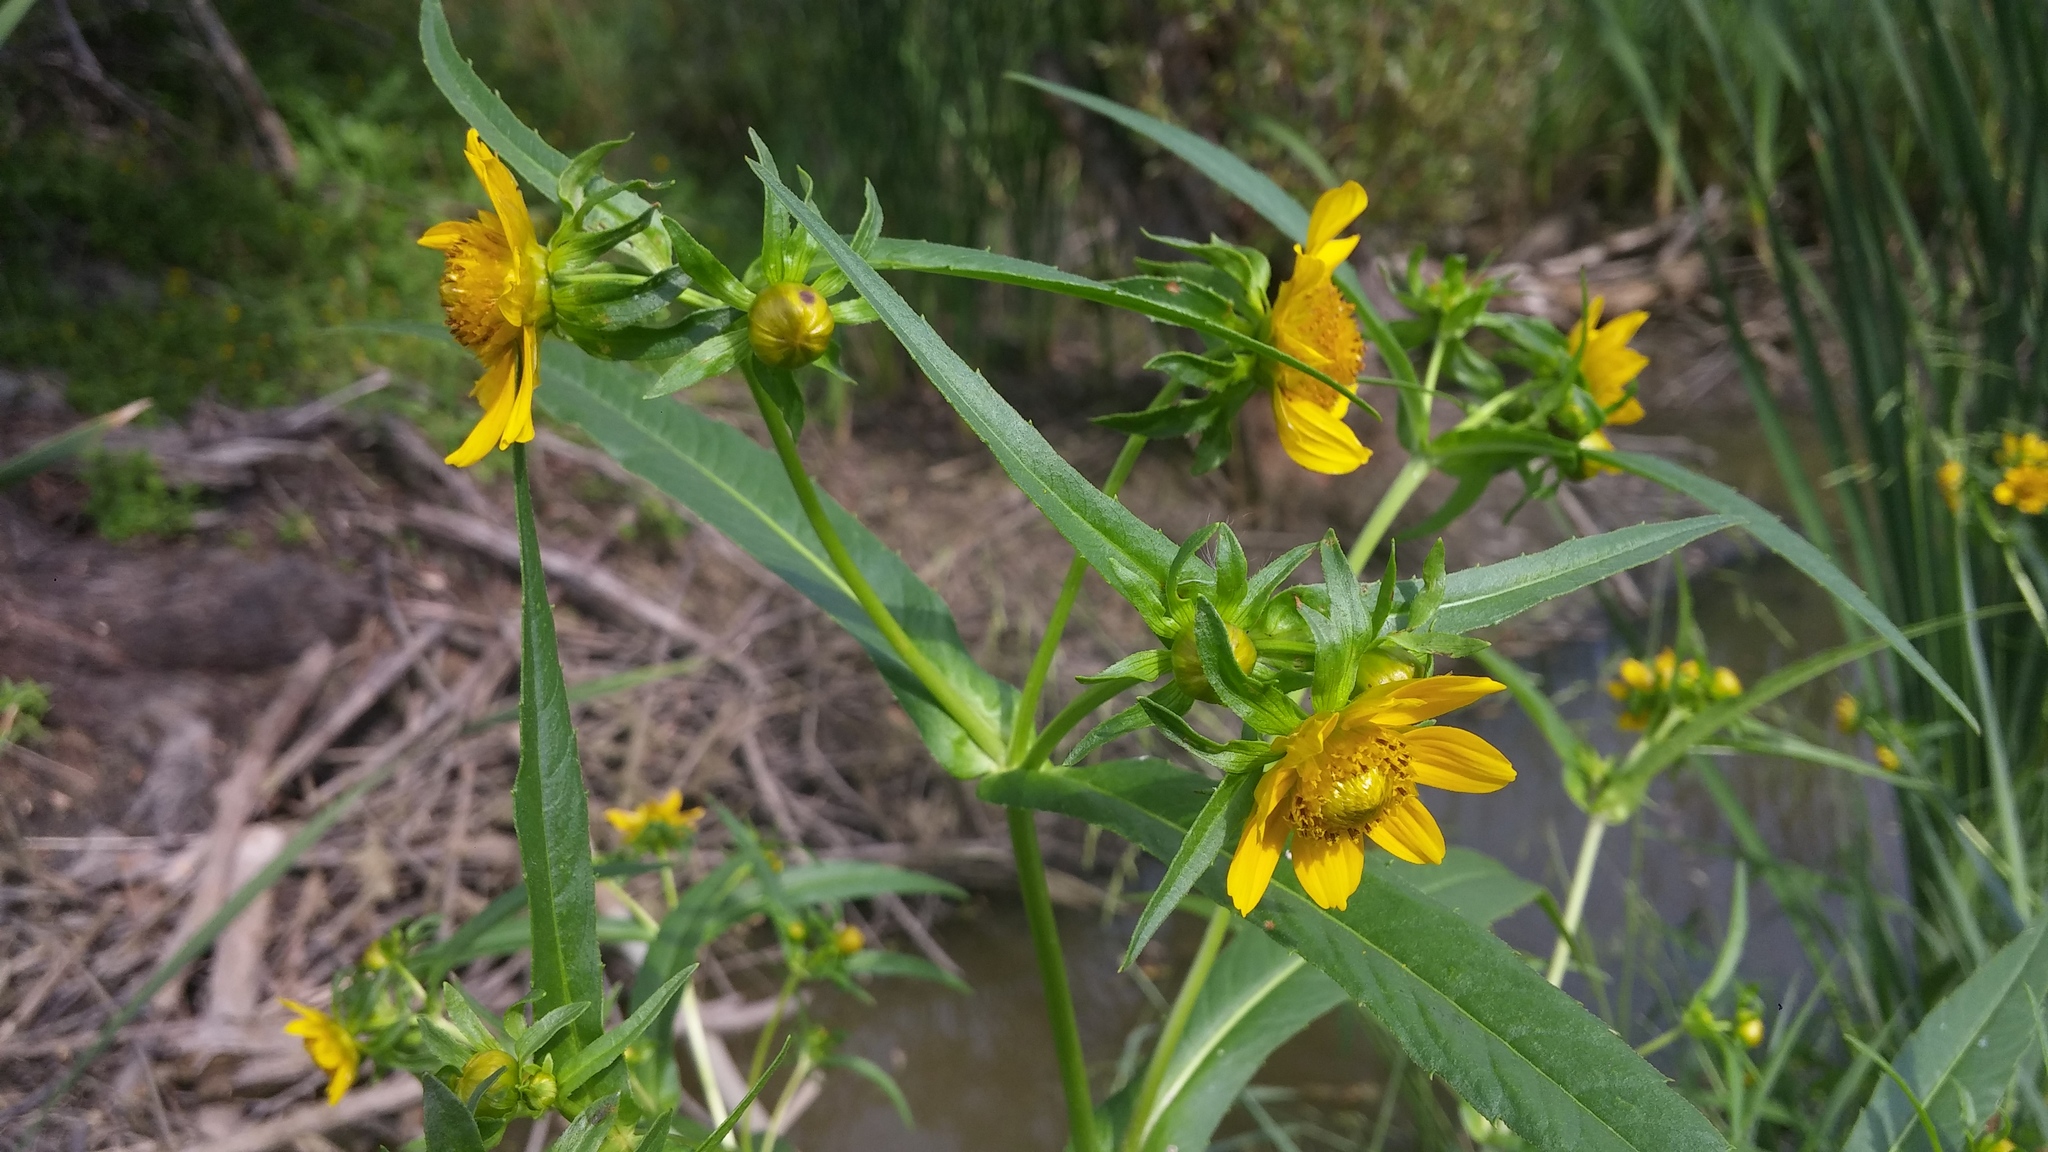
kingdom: Plantae
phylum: Tracheophyta
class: Magnoliopsida
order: Asterales
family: Asteraceae
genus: Bidens
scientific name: Bidens cernua
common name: Nodding bur-marigold
